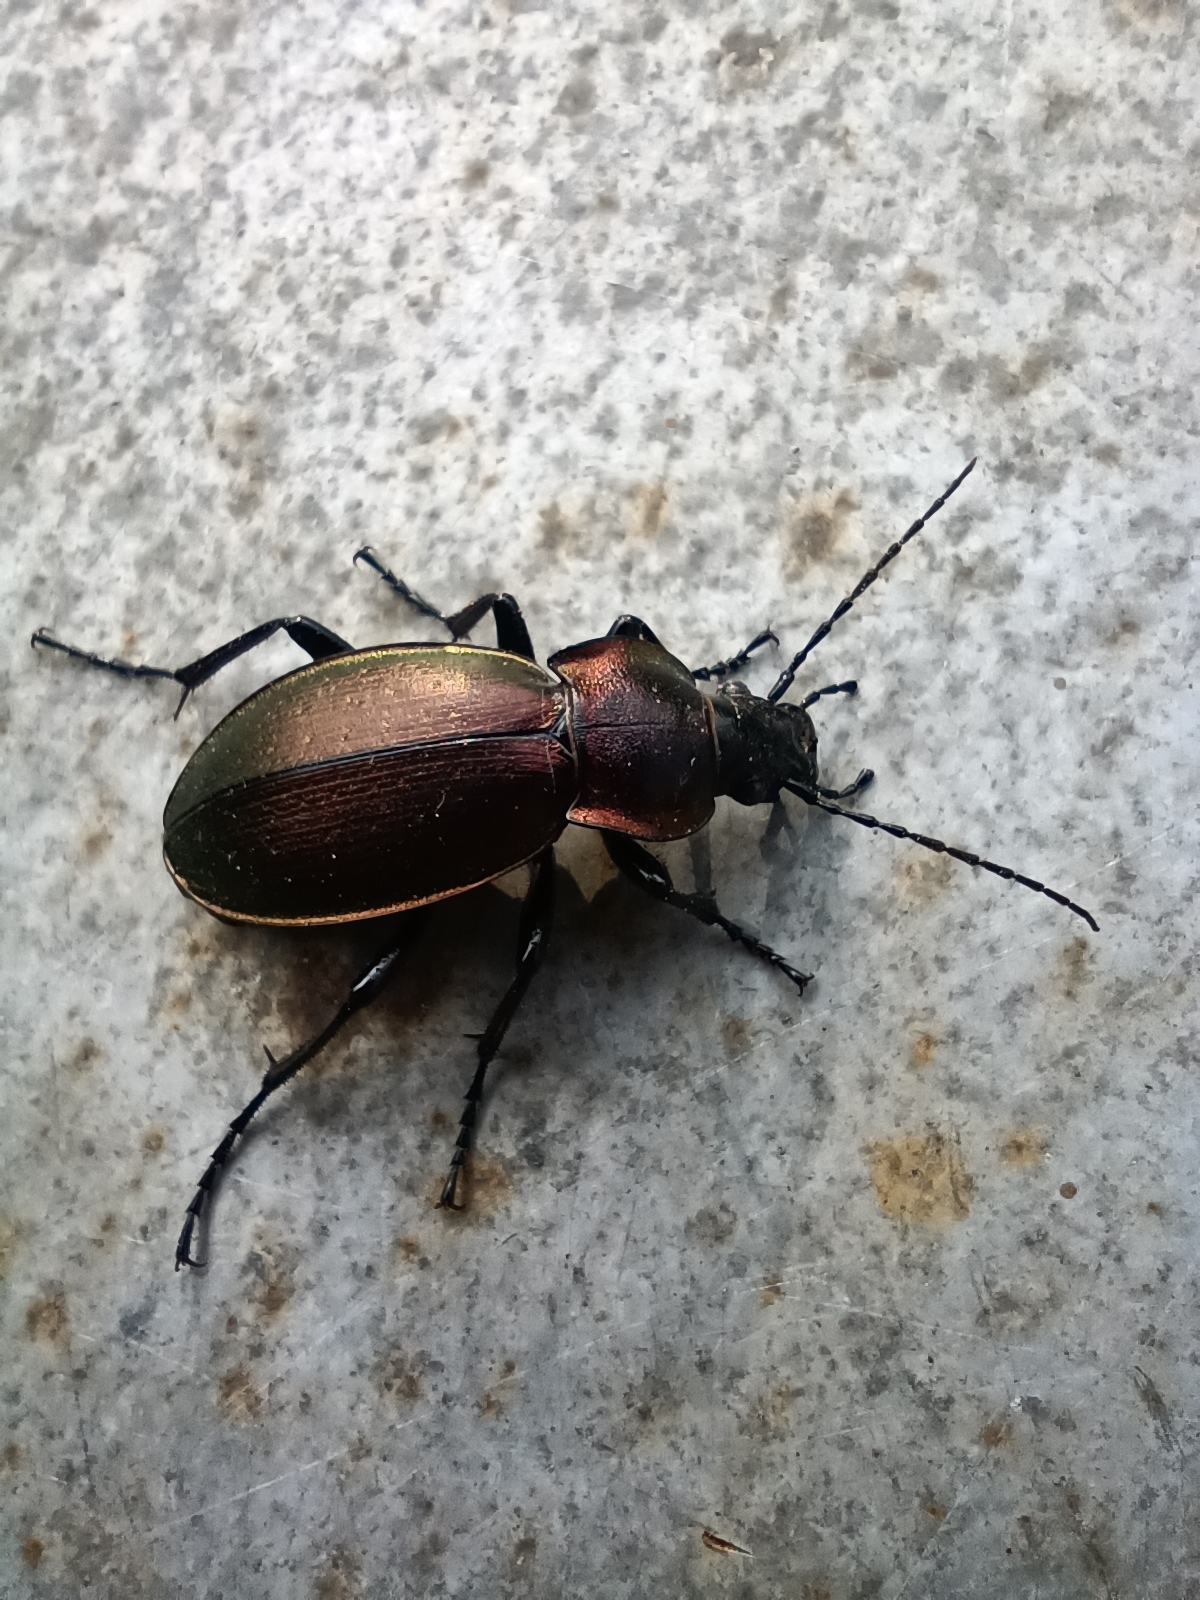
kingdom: Animalia
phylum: Arthropoda
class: Insecta
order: Coleoptera
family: Carabidae
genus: Carabus
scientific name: Carabus scheidleri
